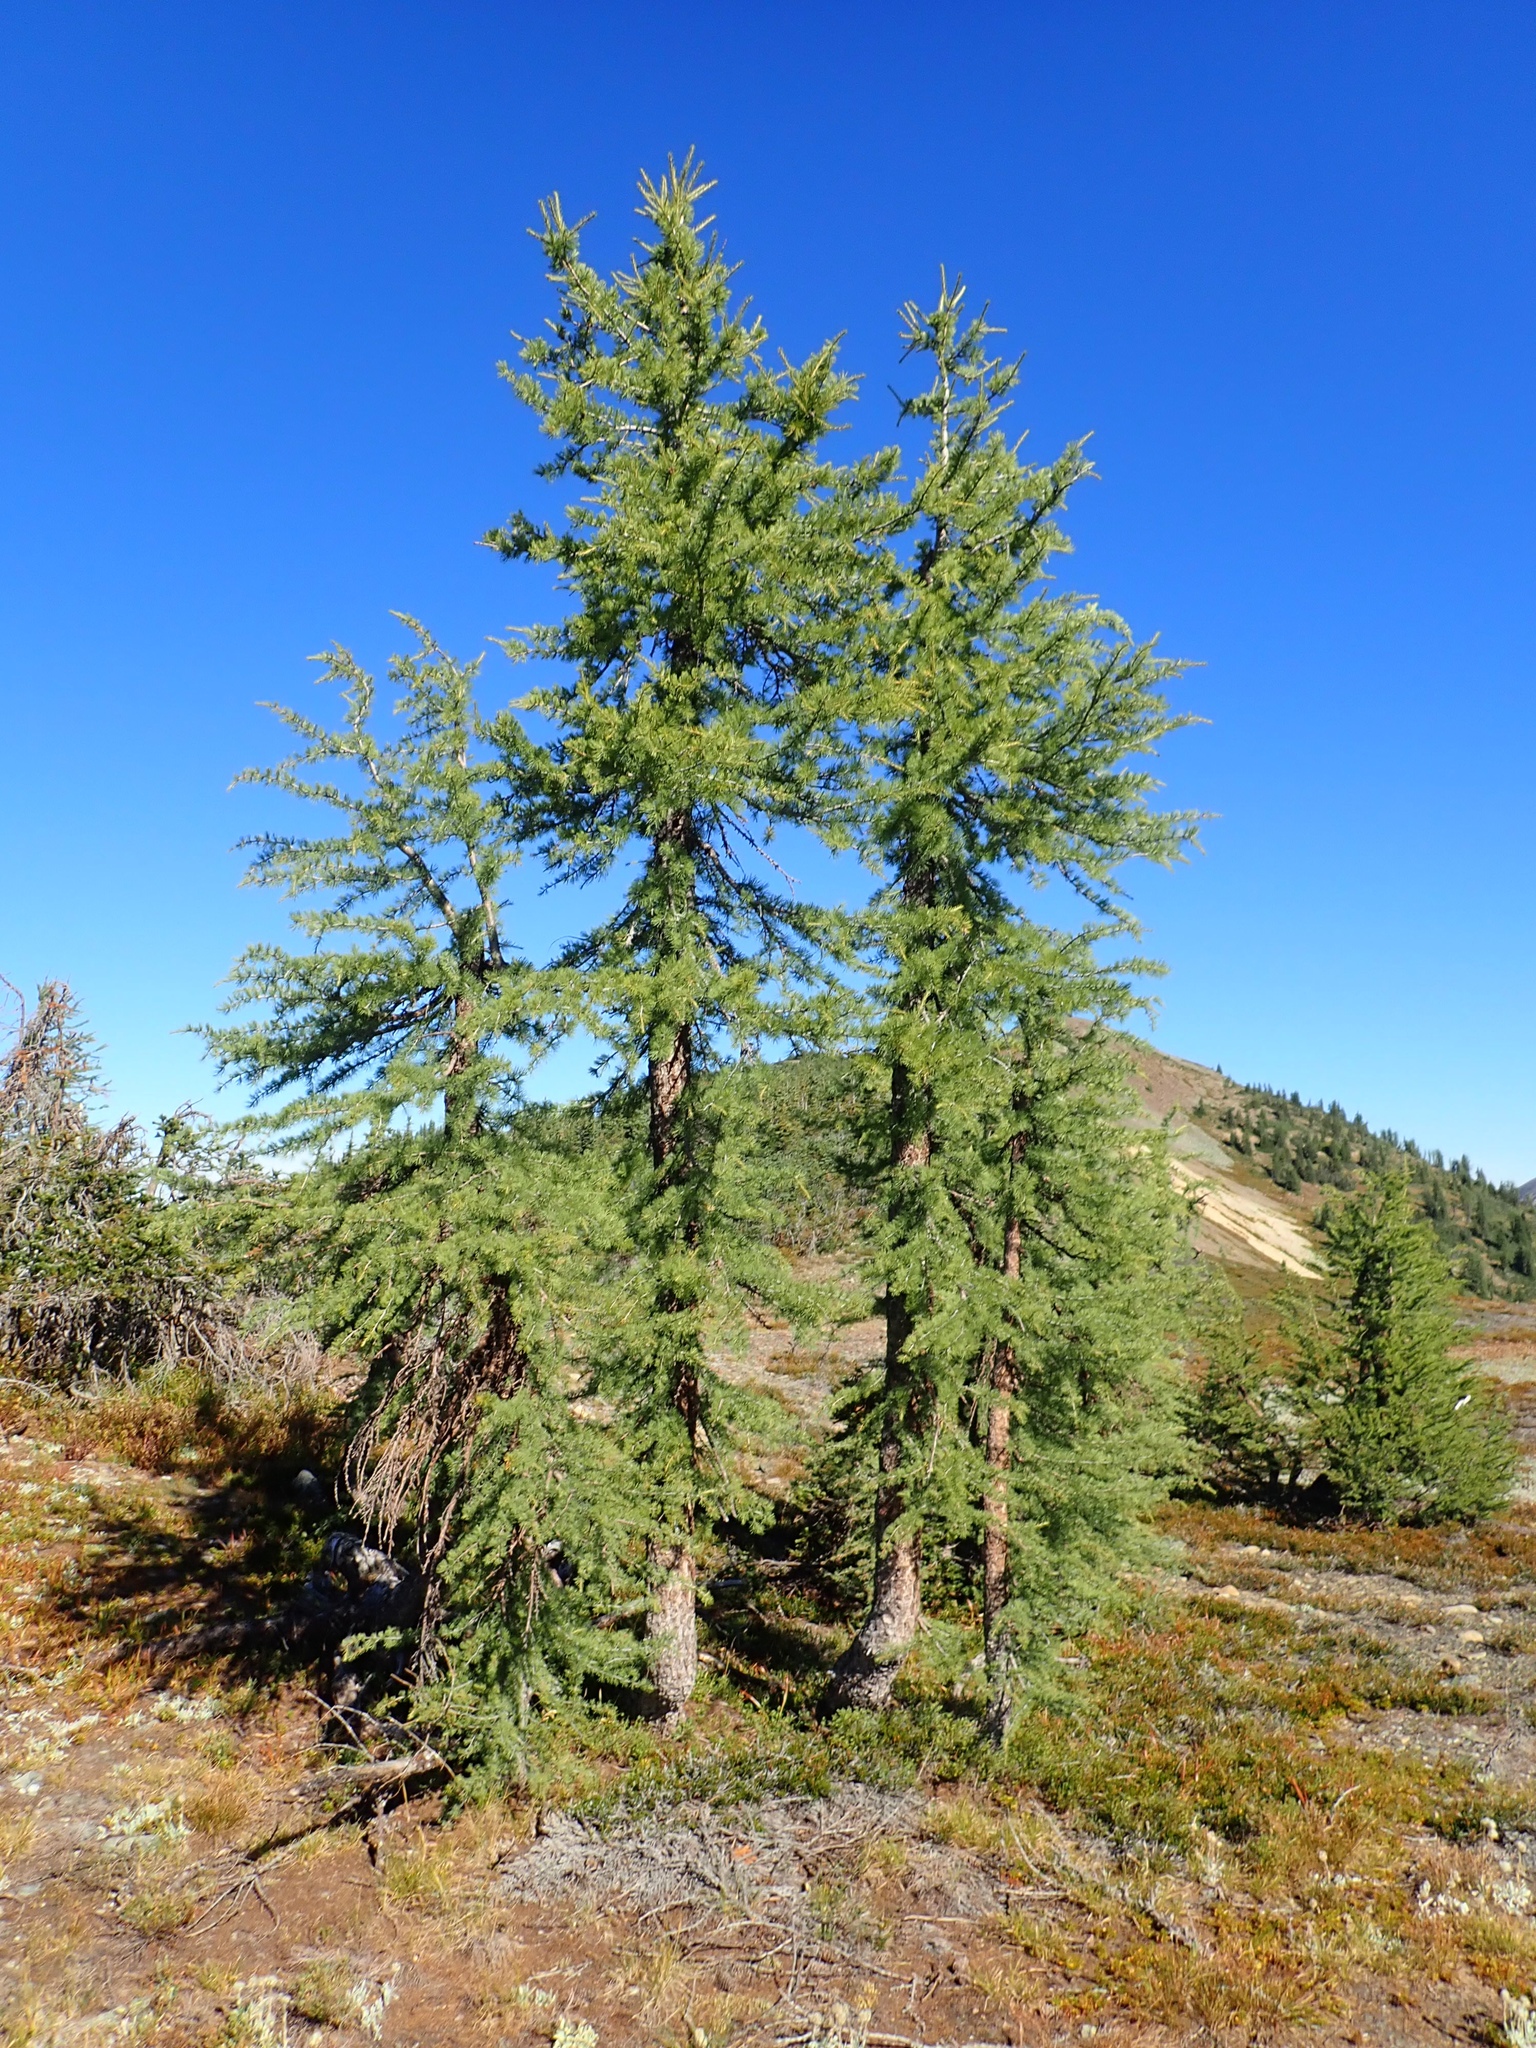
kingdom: Plantae
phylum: Tracheophyta
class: Pinopsida
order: Pinales
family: Pinaceae
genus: Larix
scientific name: Larix lyallii
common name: Alpine larch
